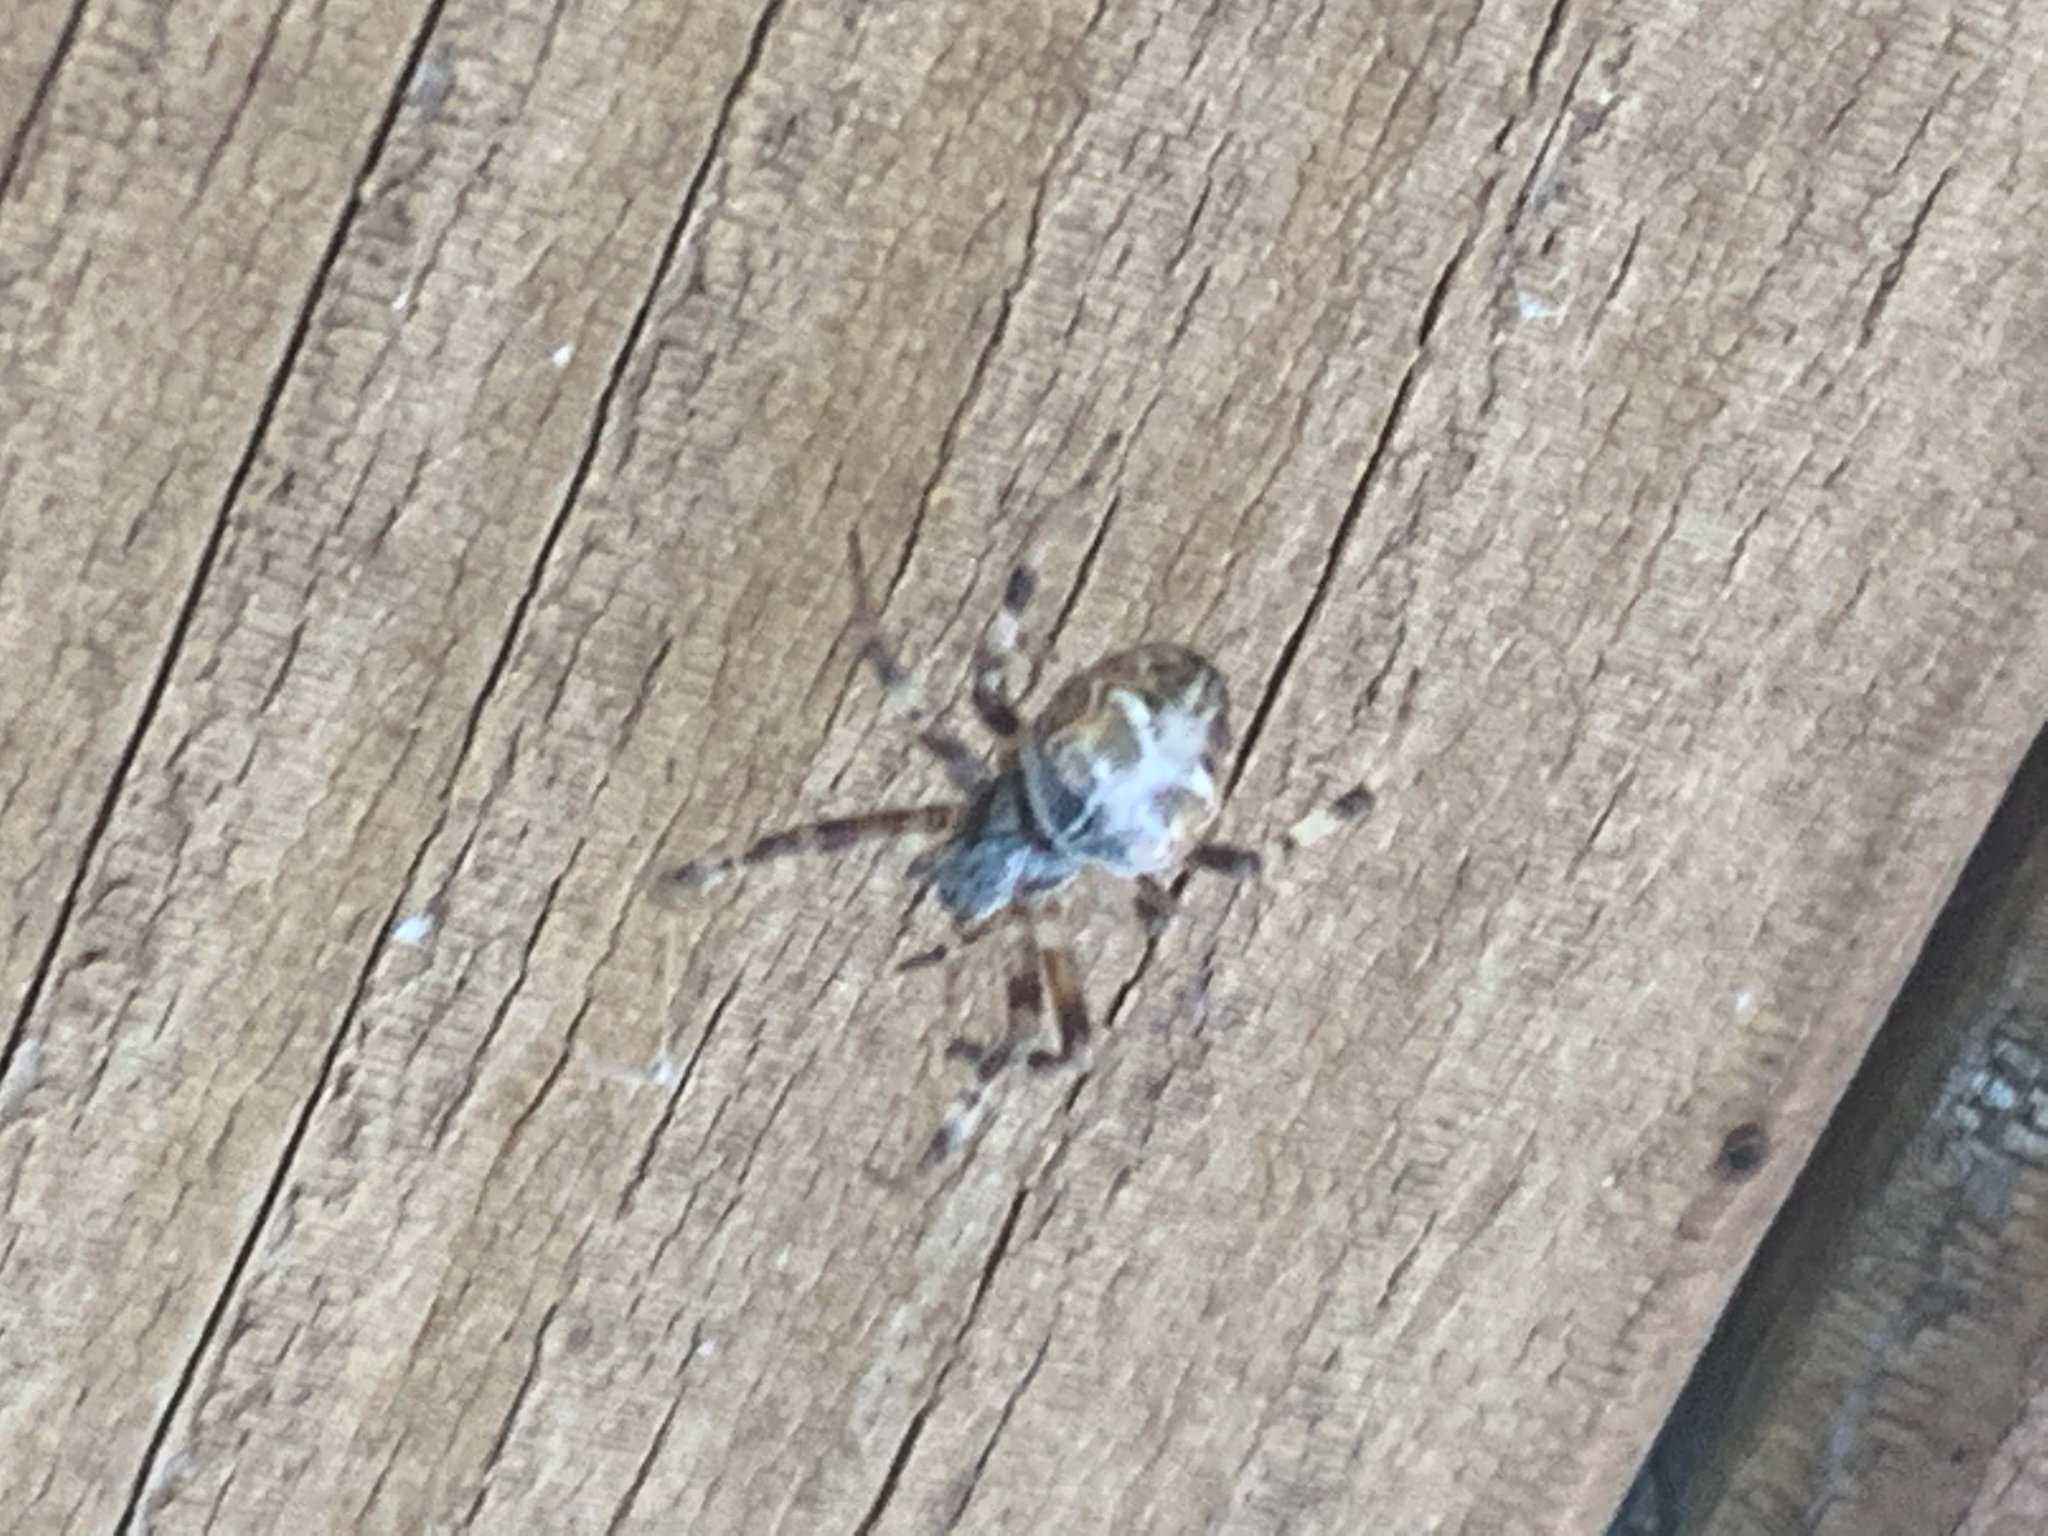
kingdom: Animalia
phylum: Arthropoda
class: Arachnida
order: Araneae
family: Araneidae
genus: Metepeira
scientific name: Metepeira labyrinthea
